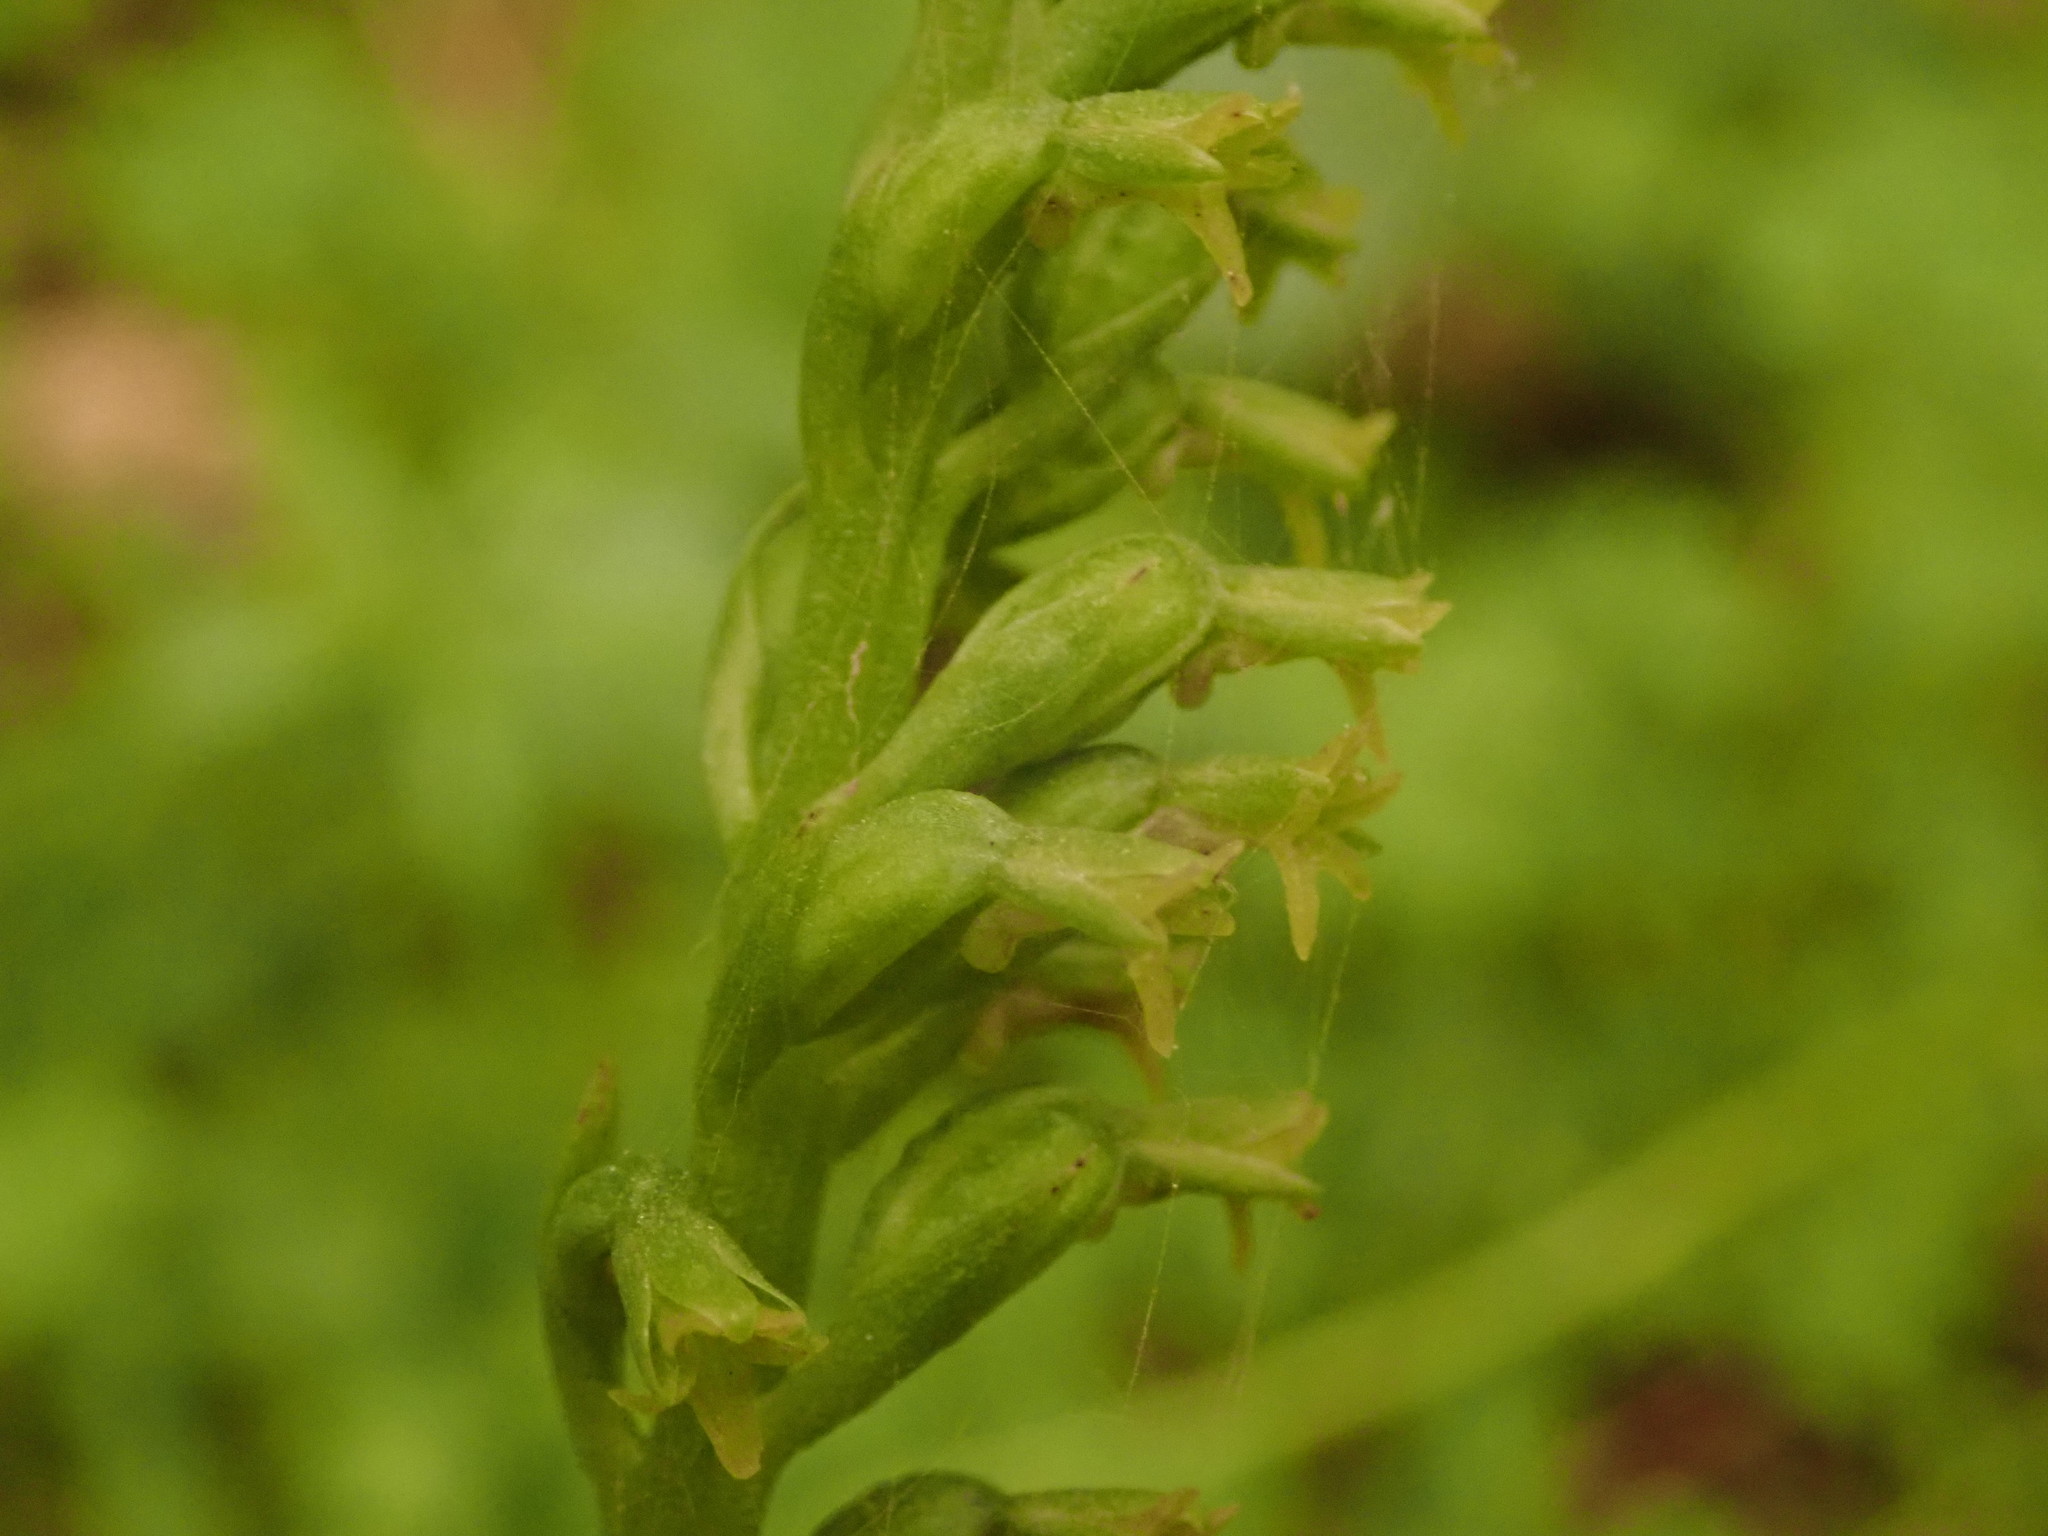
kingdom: Plantae
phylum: Tracheophyta
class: Liliopsida
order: Asparagales
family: Orchidaceae
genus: Gennaria
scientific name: Gennaria diphylla
